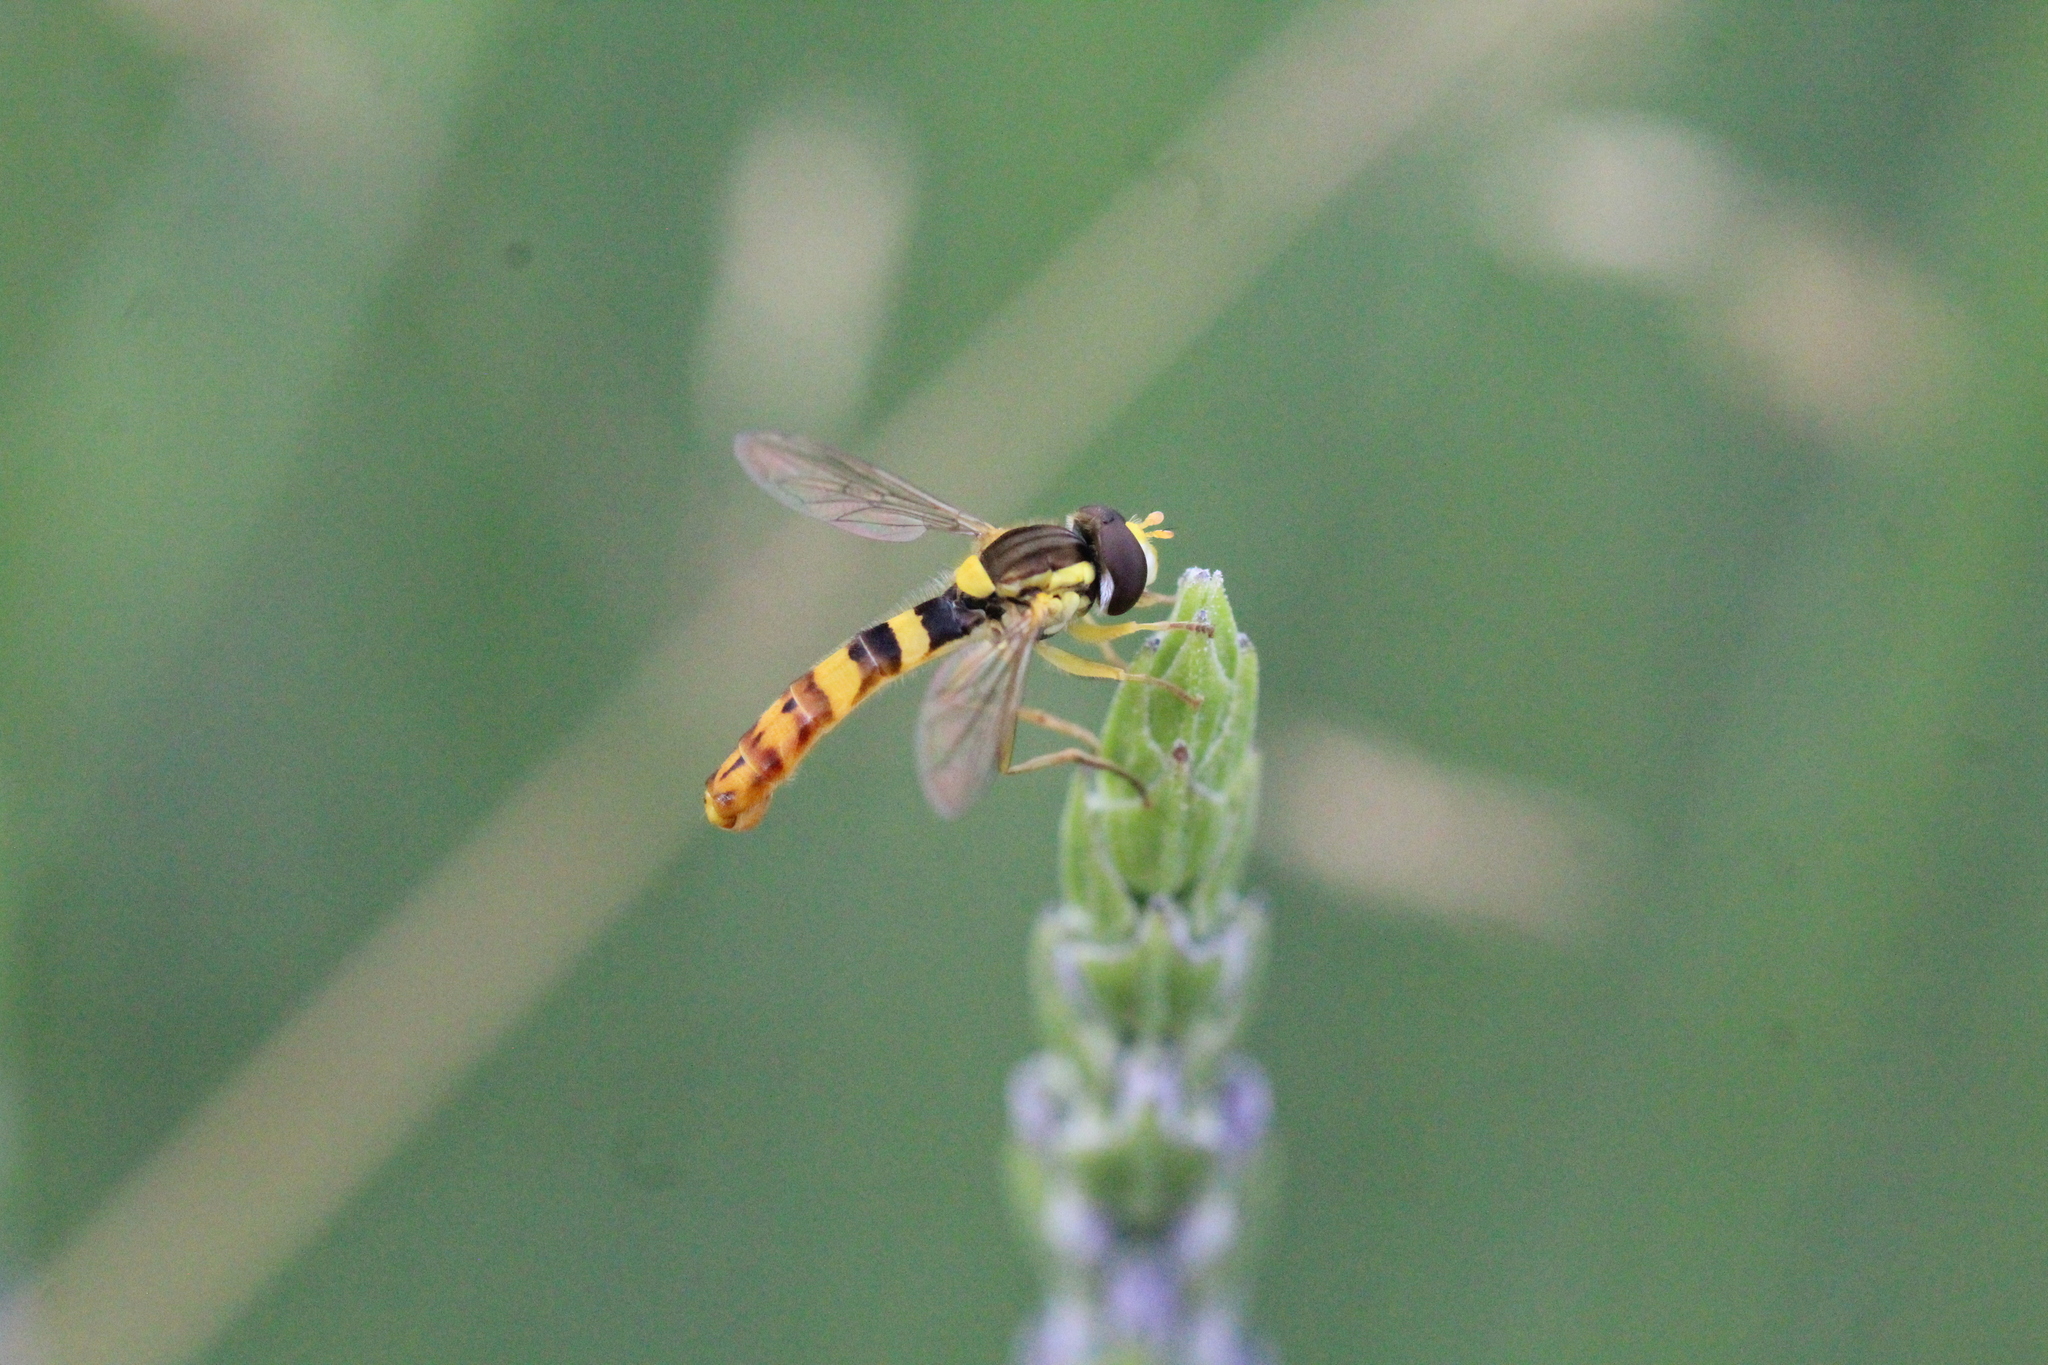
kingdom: Animalia
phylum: Arthropoda
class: Insecta
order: Diptera
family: Syrphidae
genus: Sphaerophoria
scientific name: Sphaerophoria scripta
